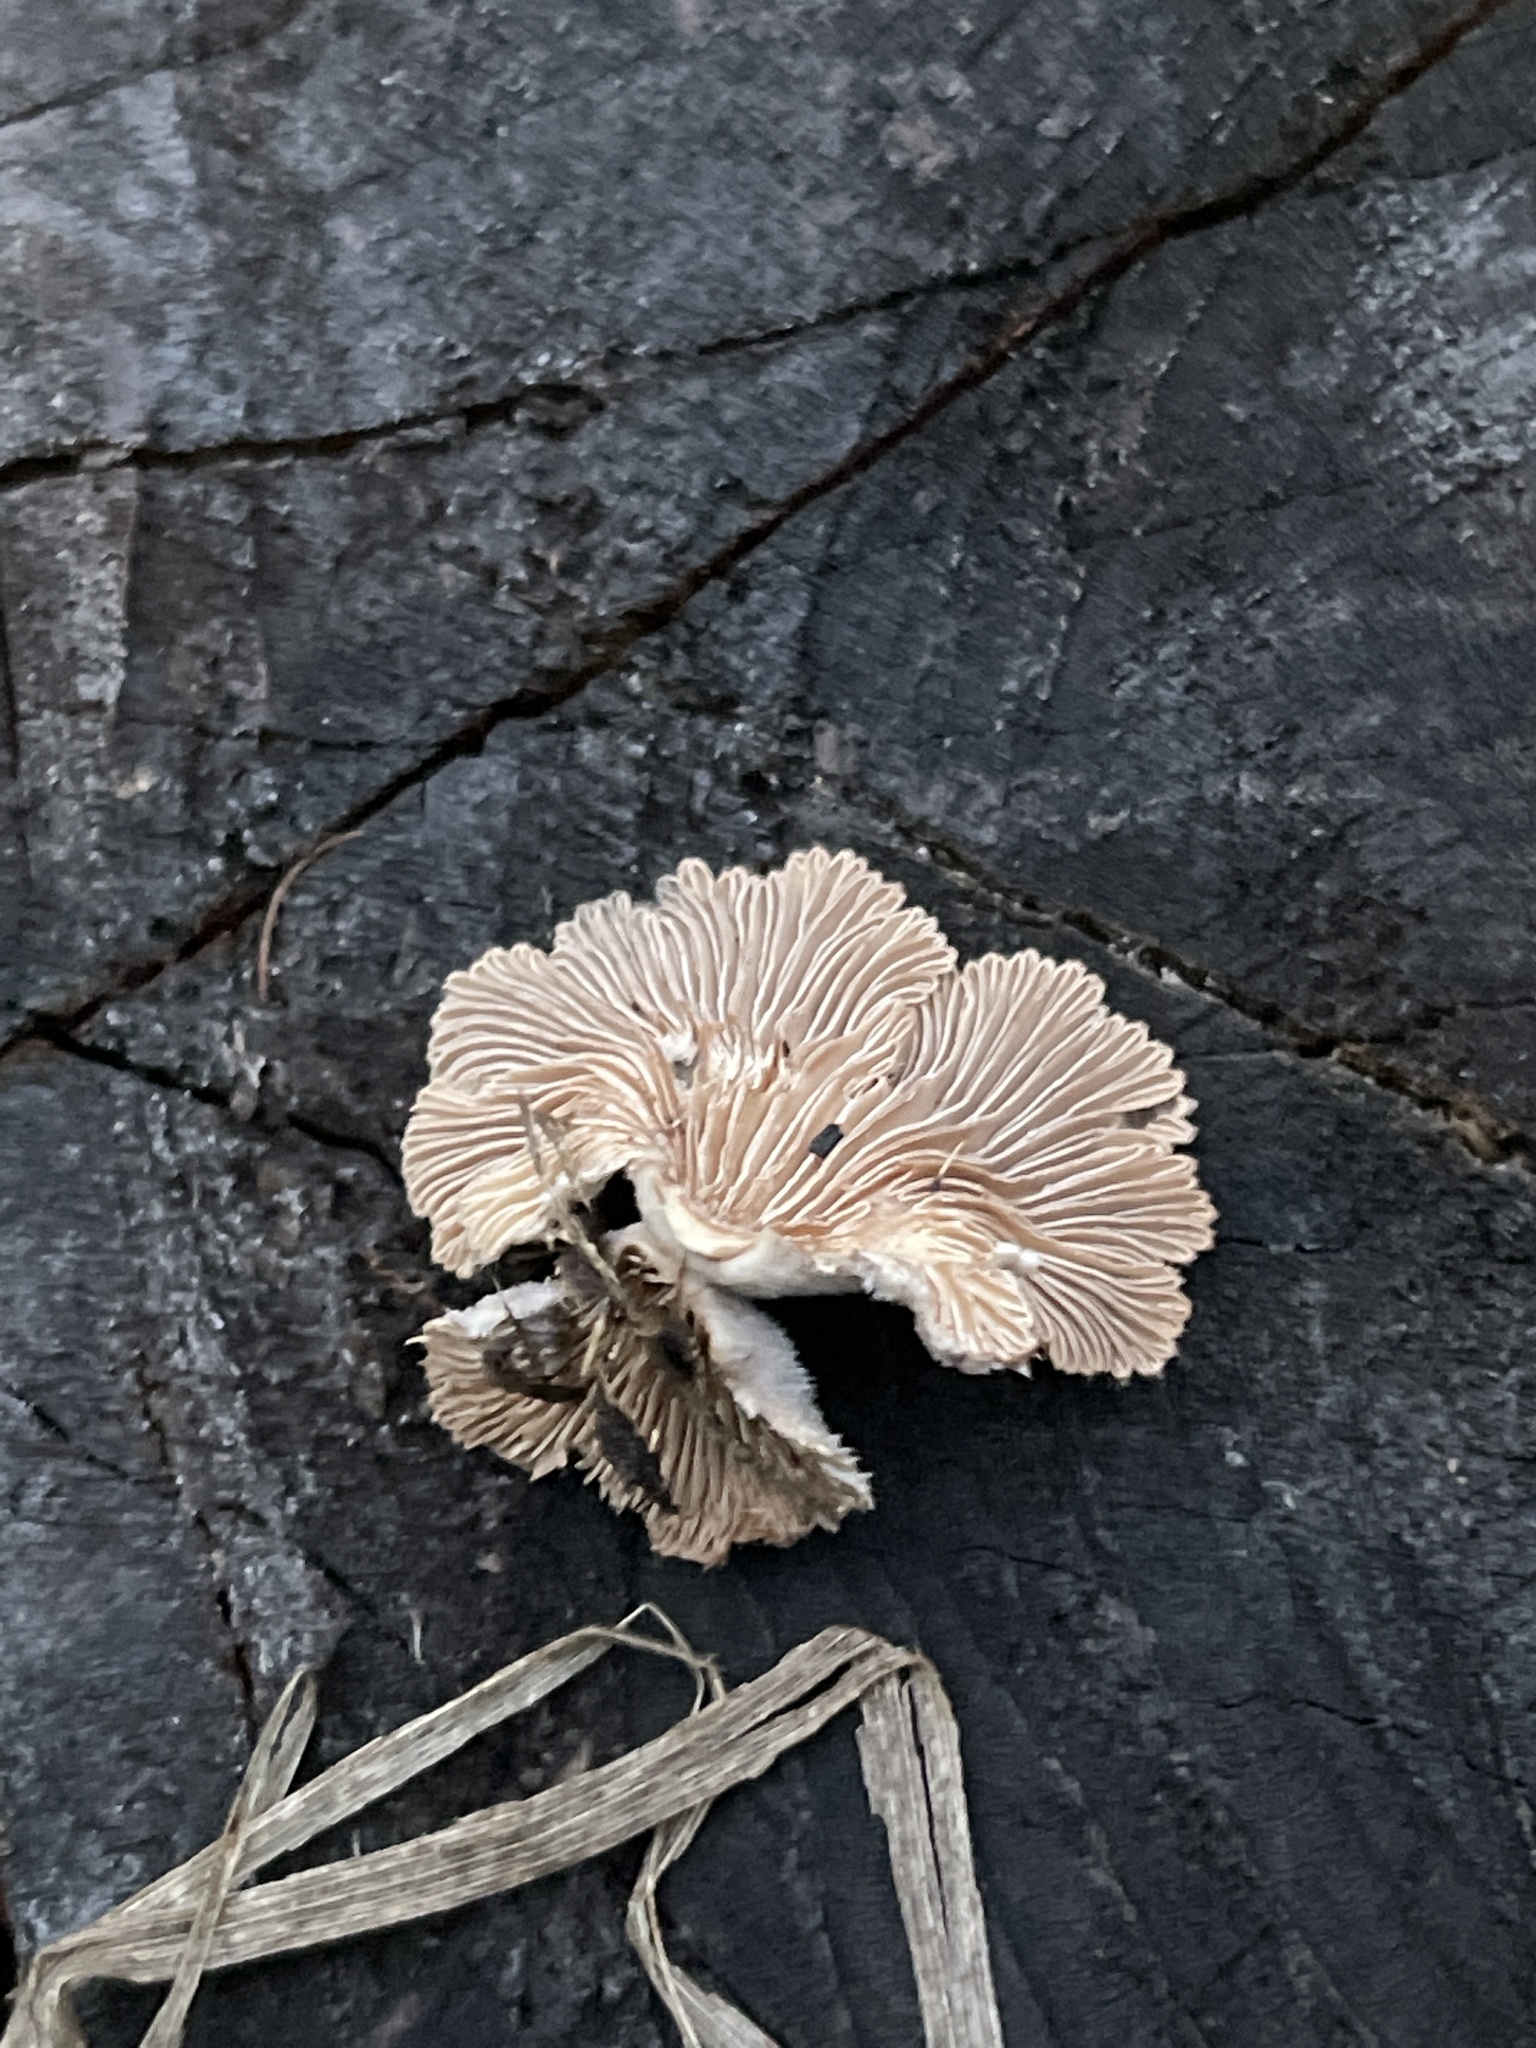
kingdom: Fungi
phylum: Basidiomycota
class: Agaricomycetes
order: Agaricales
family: Schizophyllaceae
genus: Schizophyllum
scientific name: Schizophyllum commune
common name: Common porecrust
